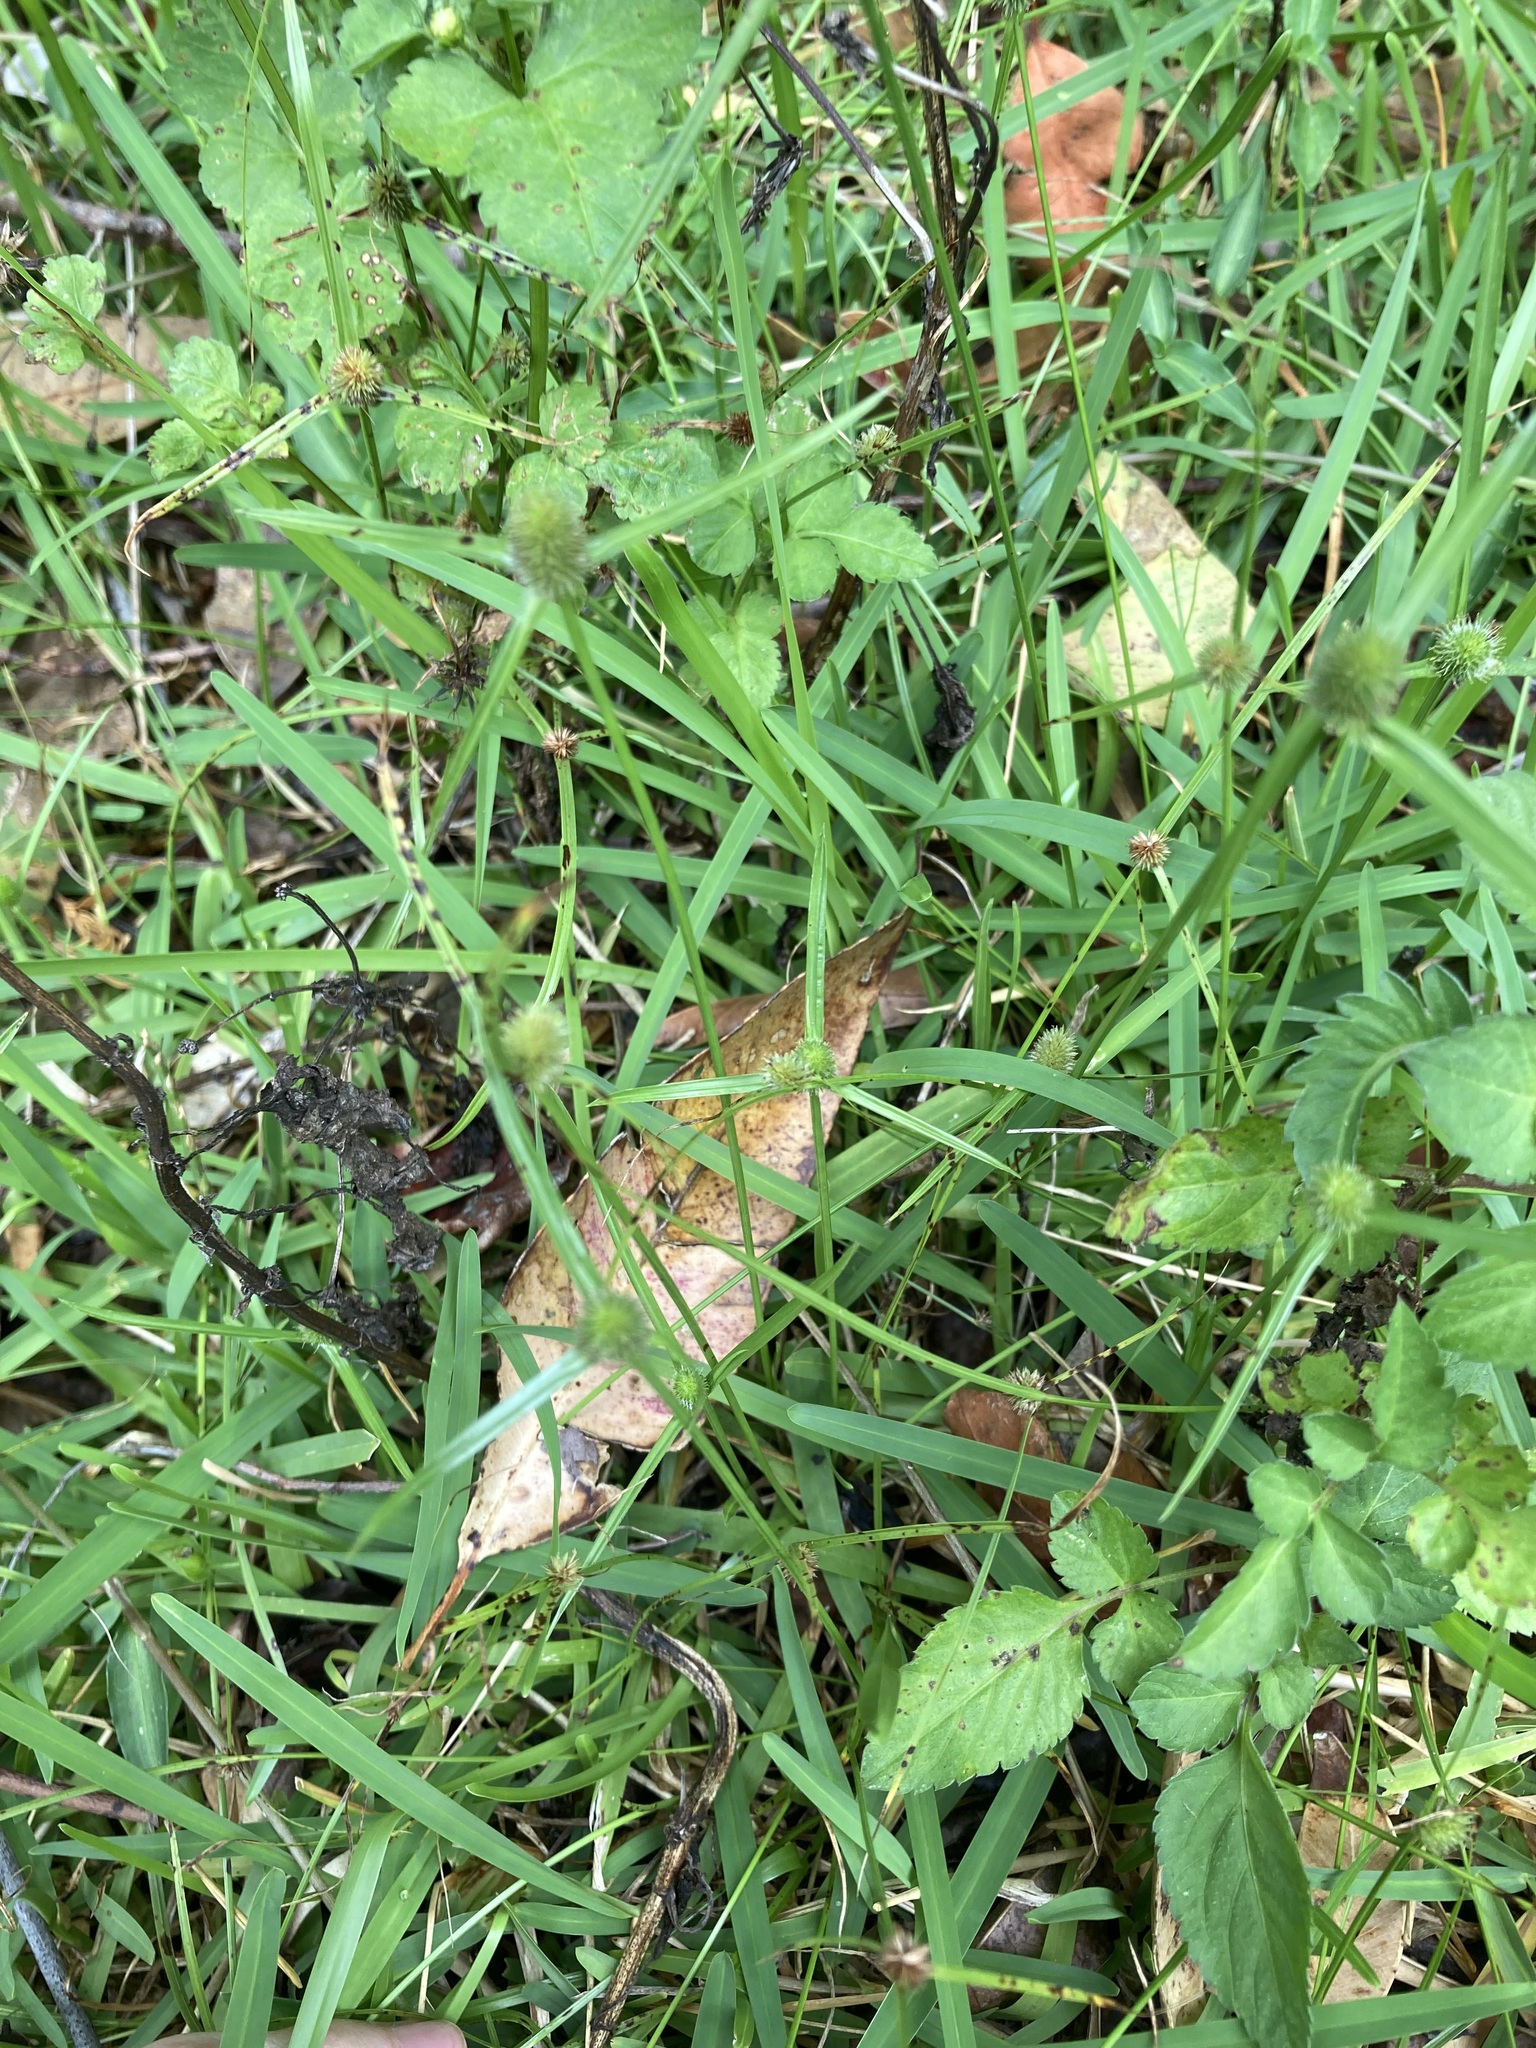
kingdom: Plantae
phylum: Tracheophyta
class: Liliopsida
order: Poales
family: Cyperaceae
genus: Cyperus
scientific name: Cyperus brevifolius
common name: Globe kyllinga
